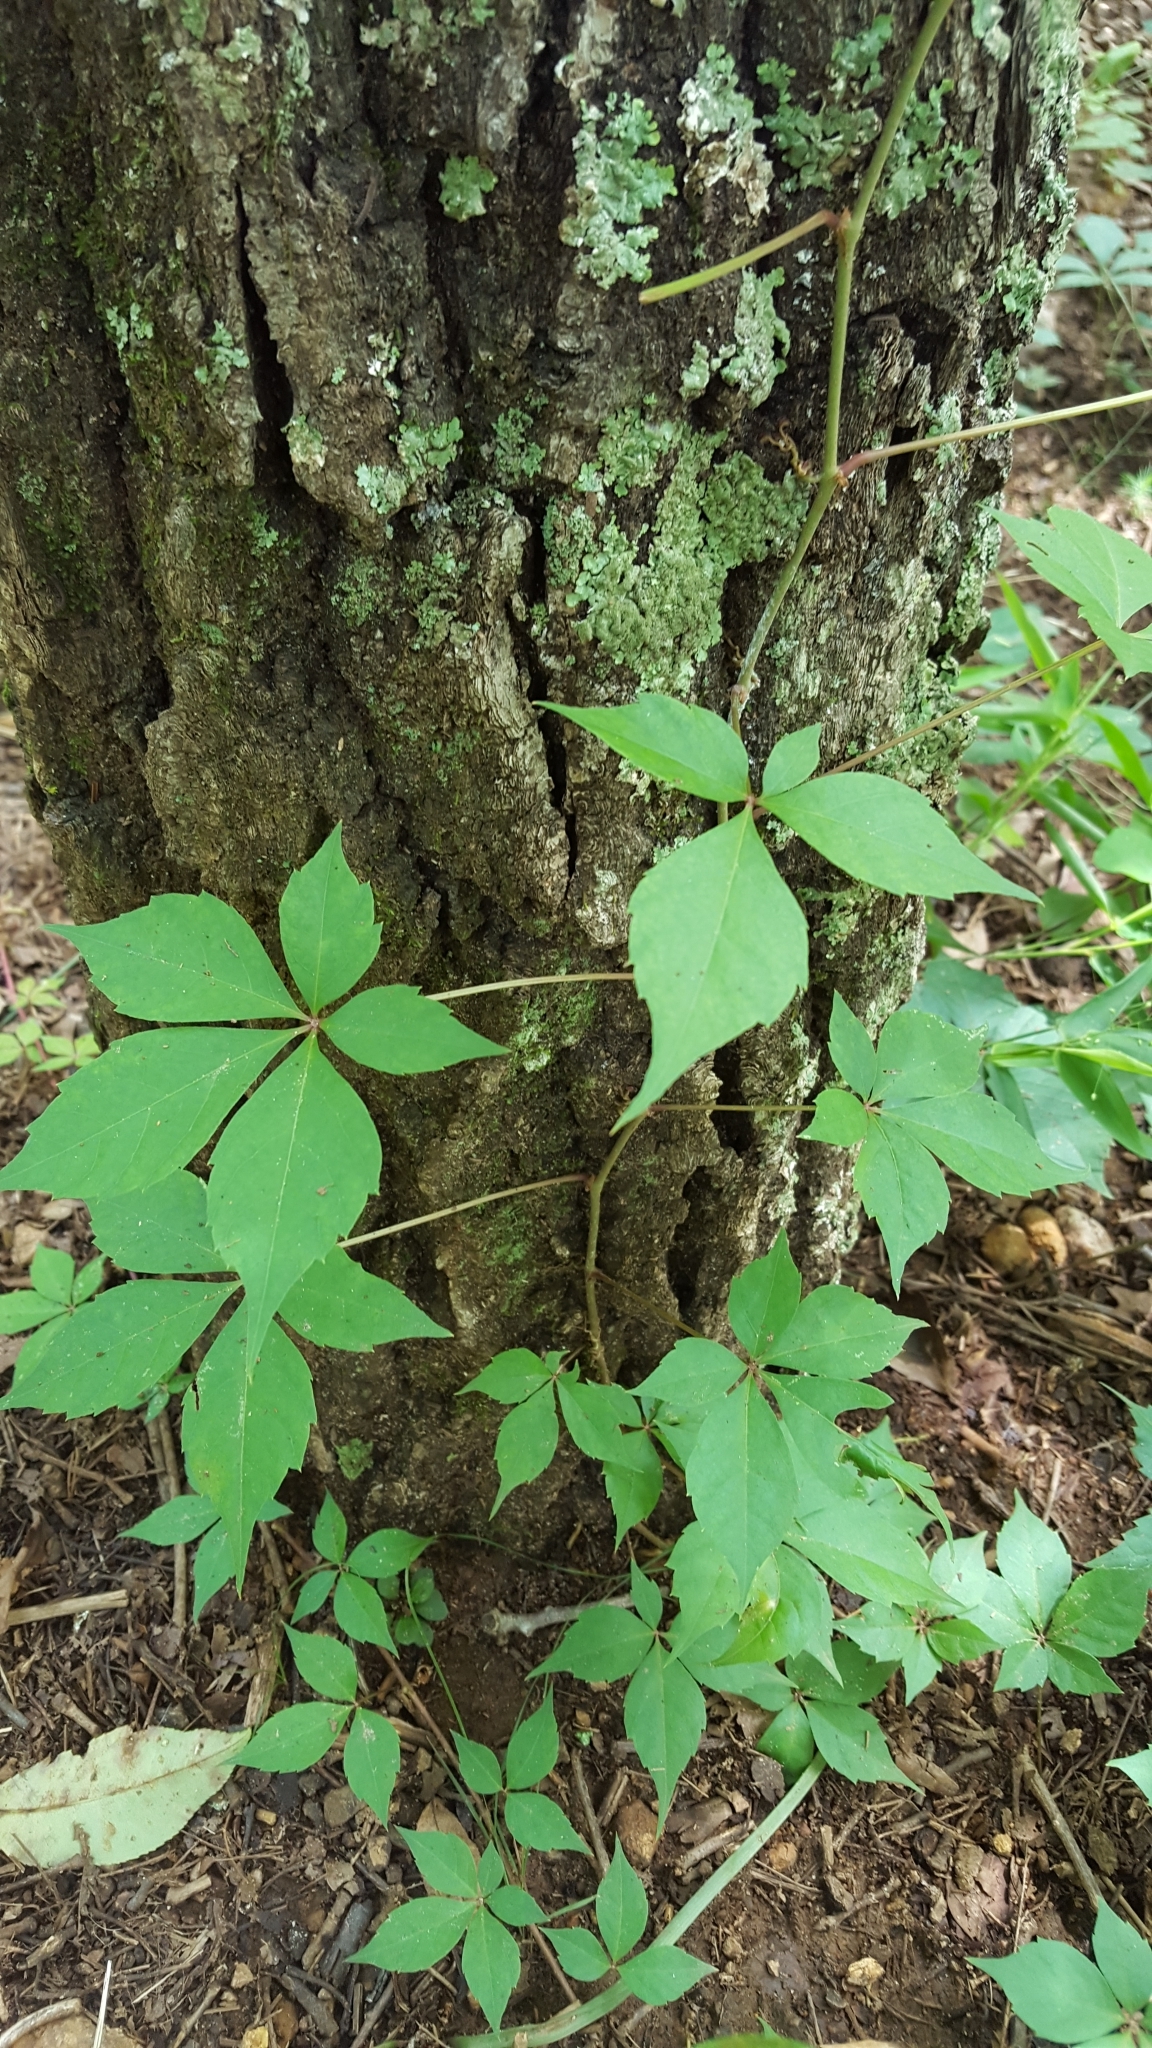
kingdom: Plantae
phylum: Tracheophyta
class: Magnoliopsida
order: Vitales
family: Vitaceae
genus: Parthenocissus
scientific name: Parthenocissus quinquefolia
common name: Virginia-creeper
